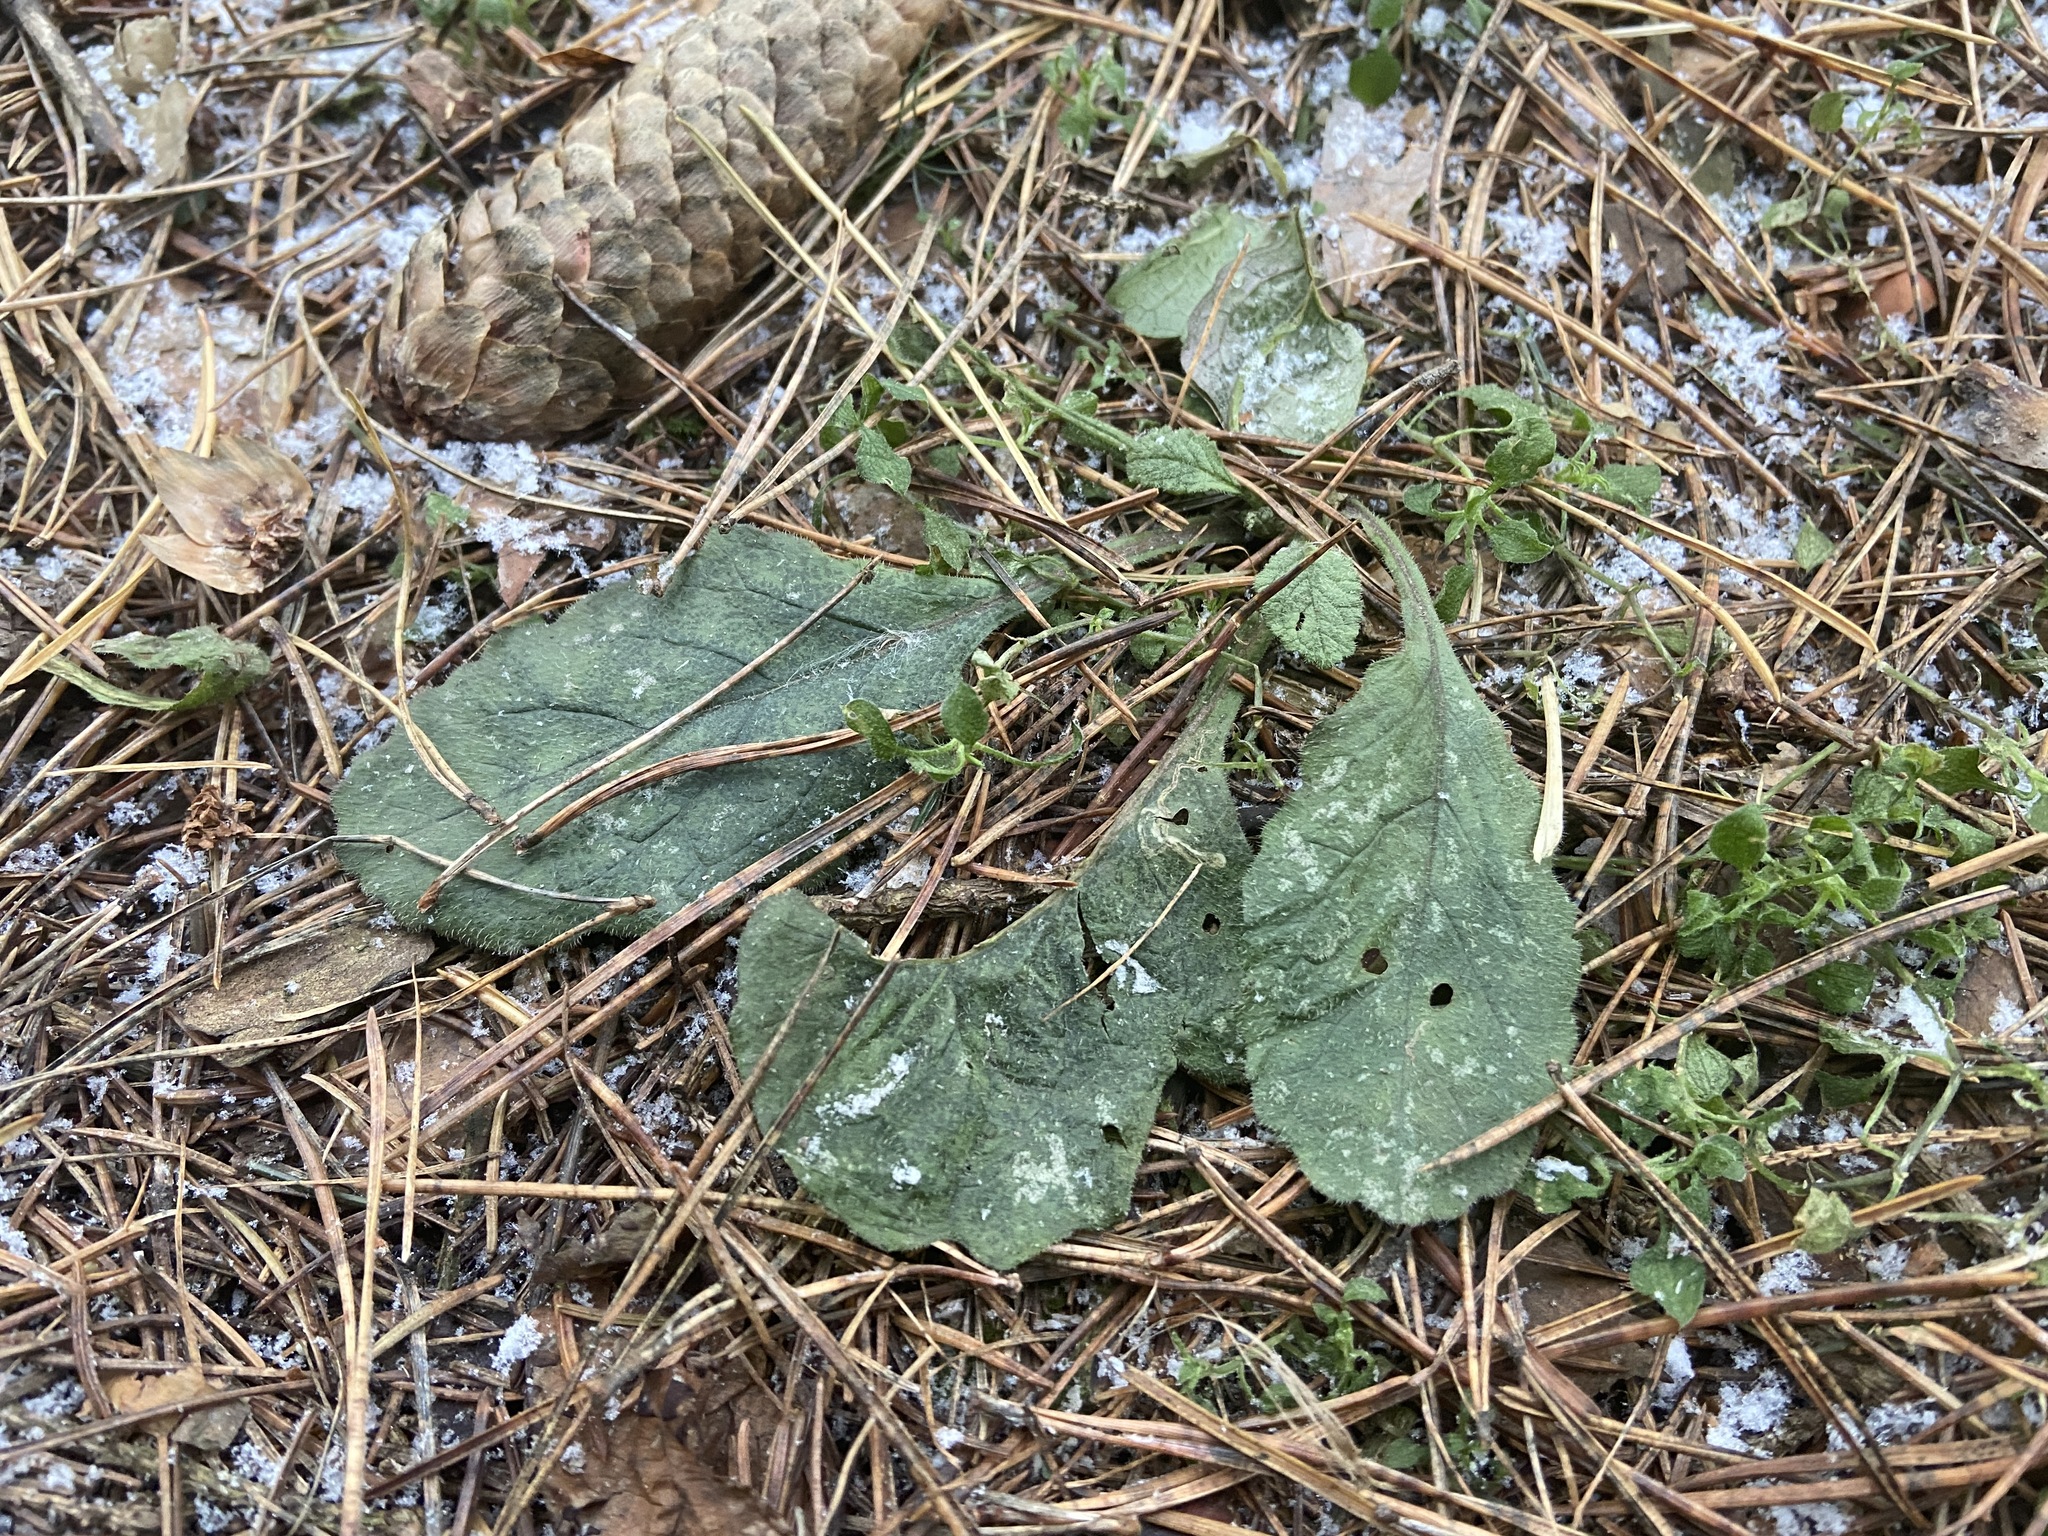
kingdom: Plantae
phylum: Tracheophyta
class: Magnoliopsida
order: Lamiales
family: Lamiaceae
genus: Ajuga
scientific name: Ajuga reptans
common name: Bugle
